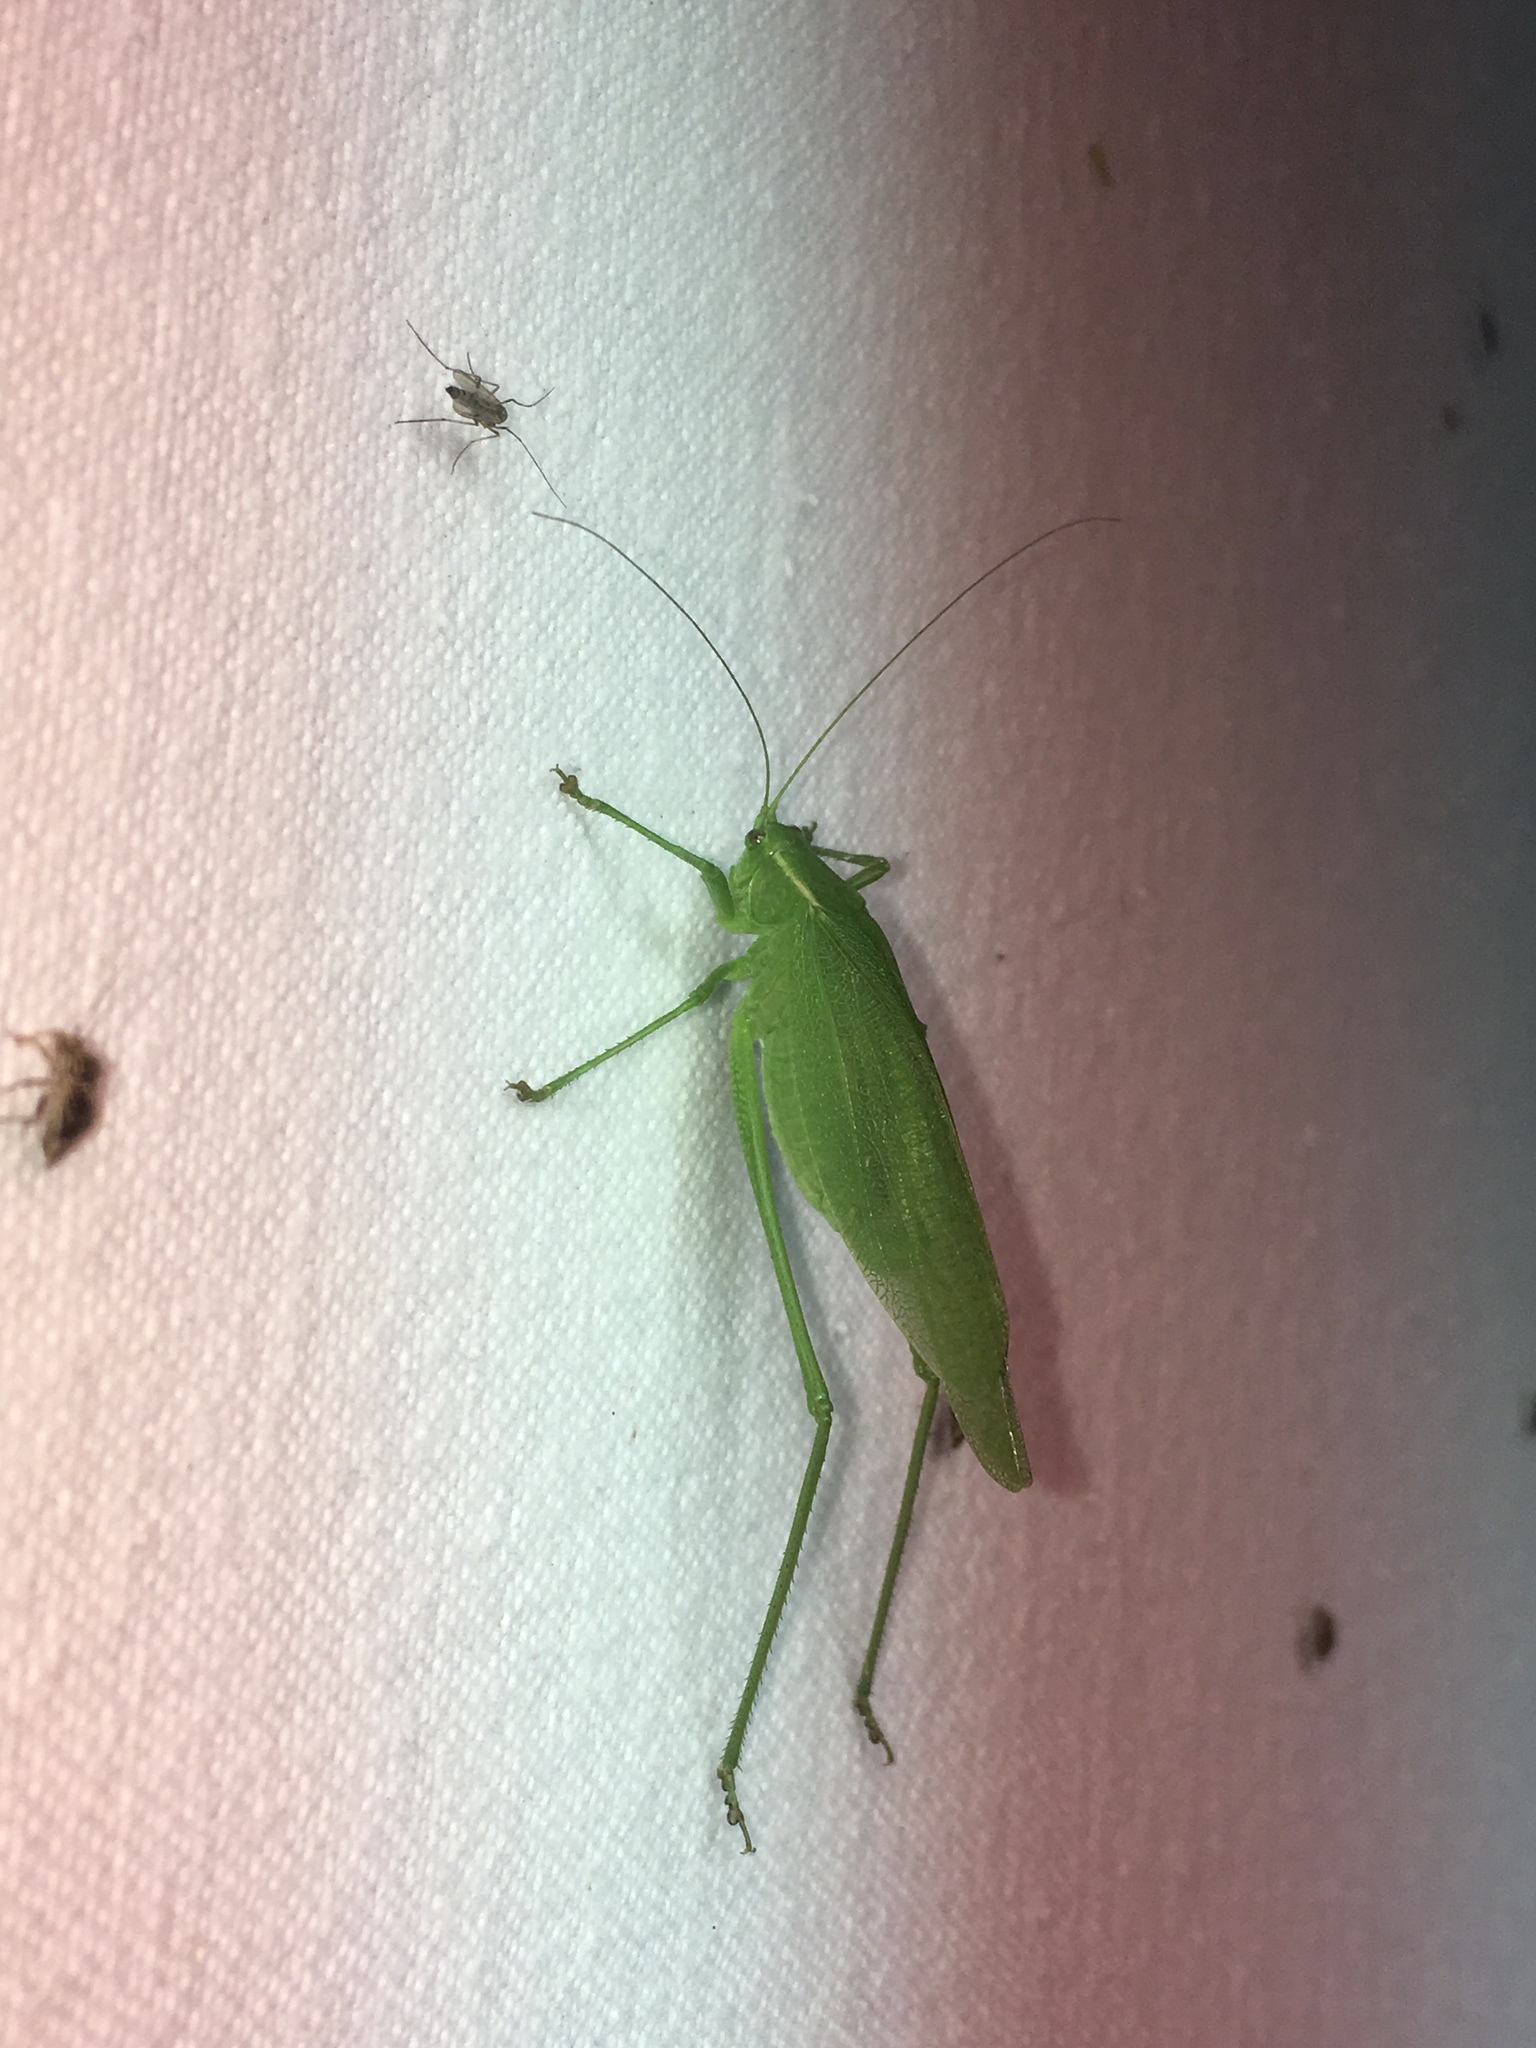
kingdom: Animalia
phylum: Arthropoda
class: Insecta
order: Orthoptera
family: Tettigoniidae
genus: Scudderia
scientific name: Scudderia septentrionalis
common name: Northern bush-katydid
